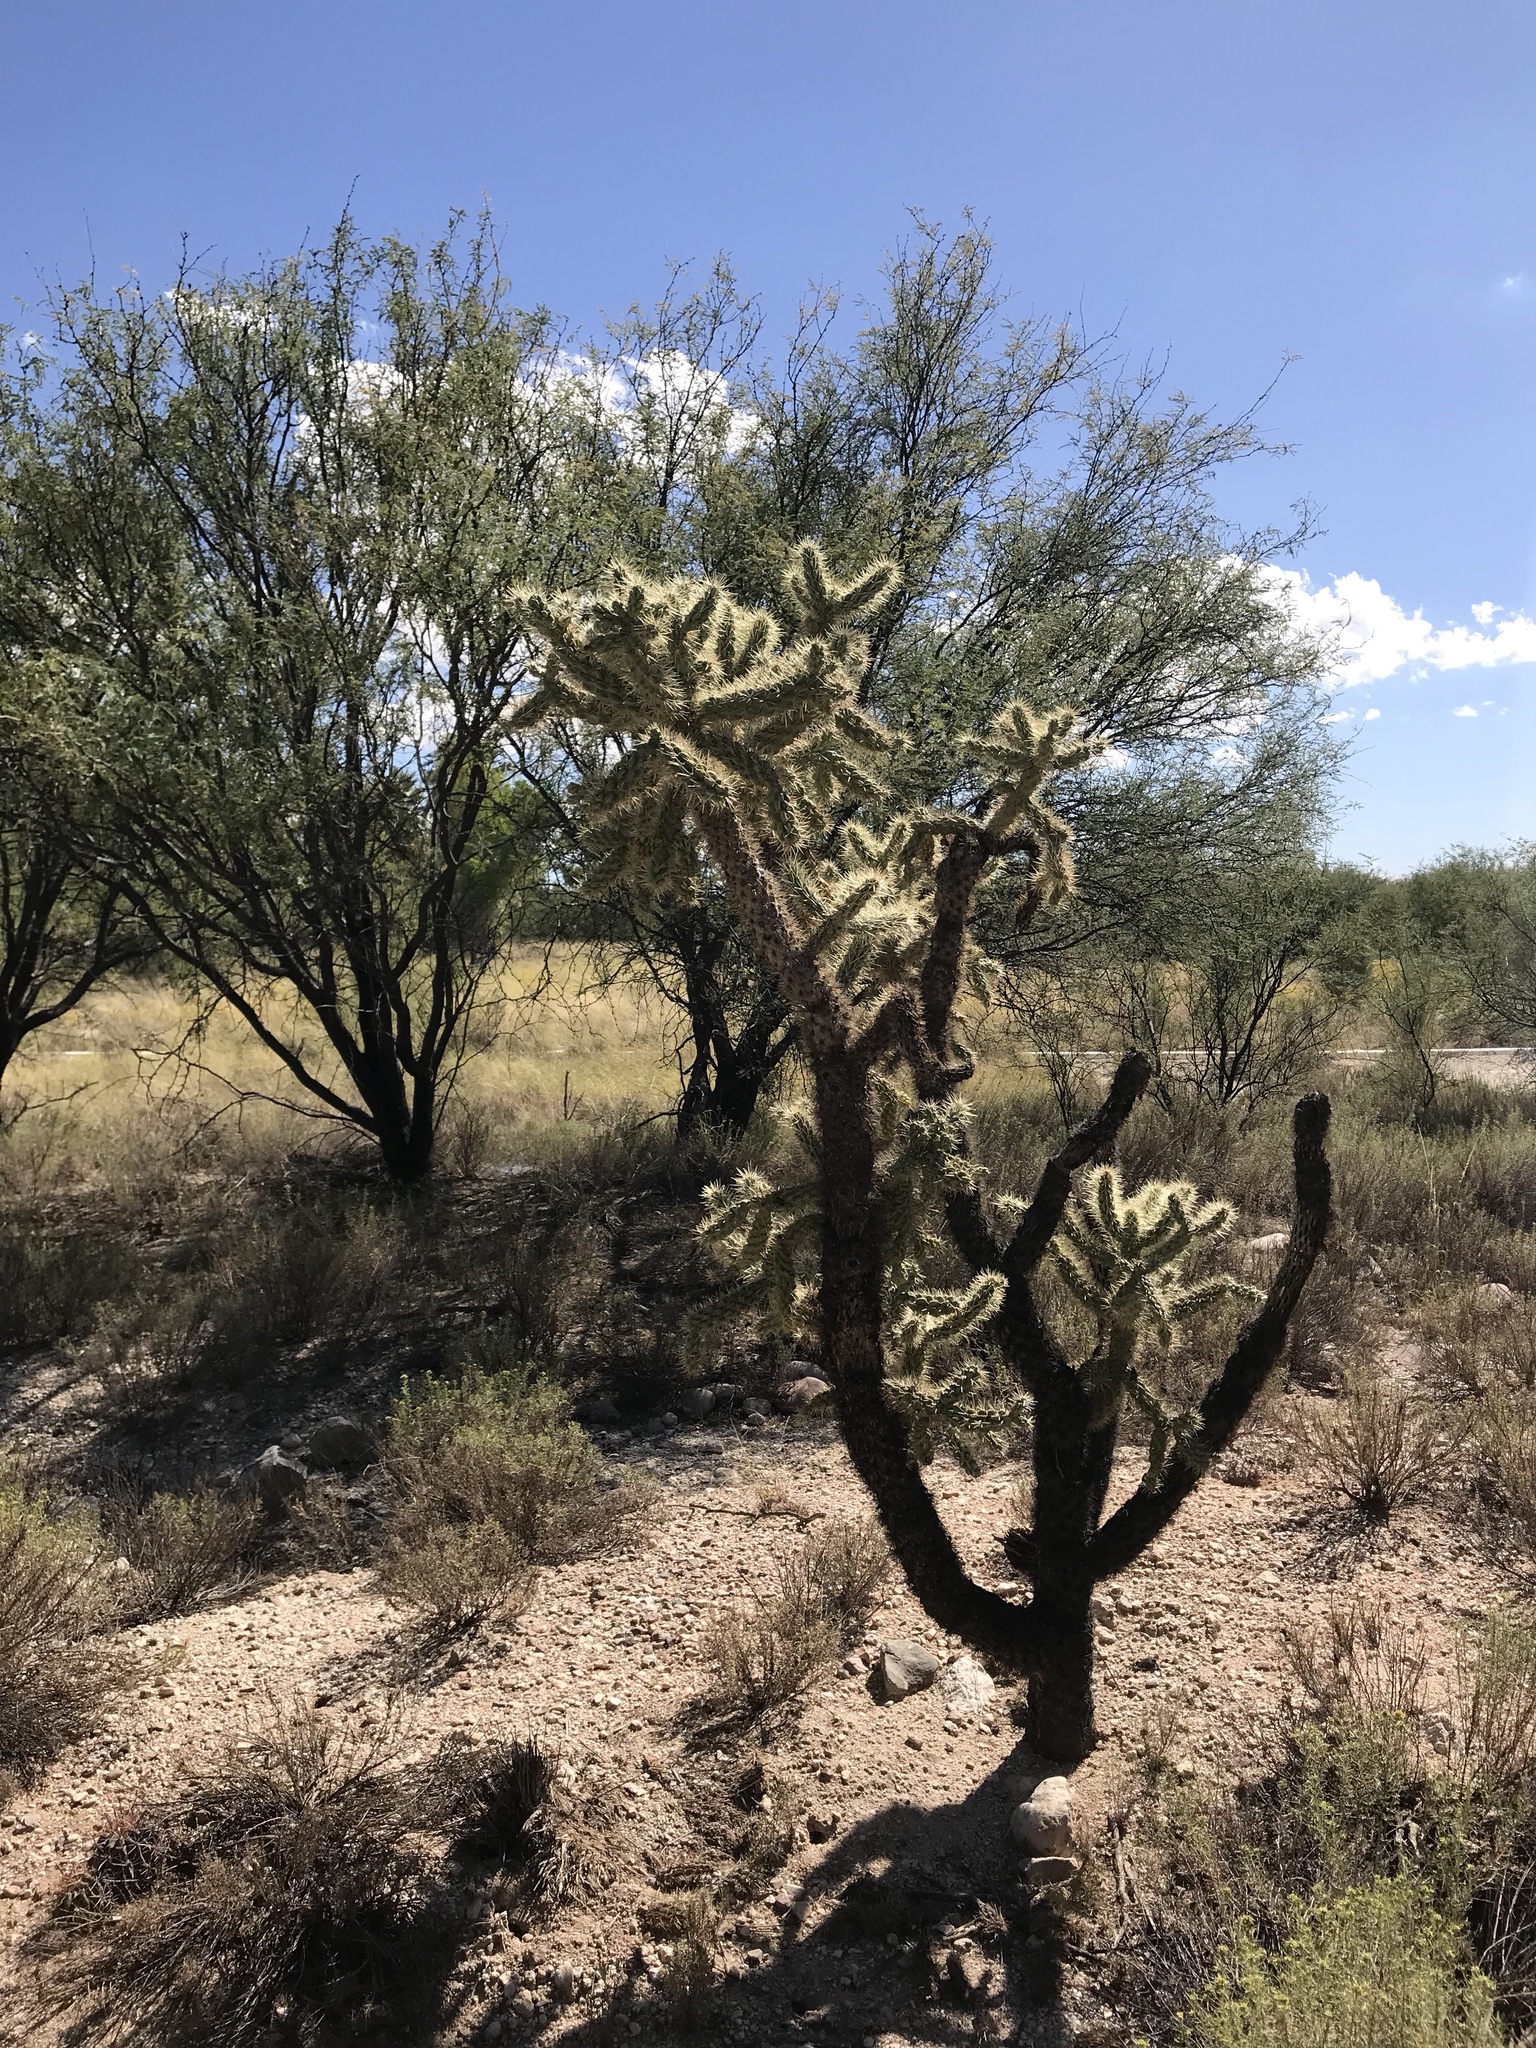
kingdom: Plantae
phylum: Tracheophyta
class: Magnoliopsida
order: Caryophyllales
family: Cactaceae
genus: Cylindropuntia
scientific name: Cylindropuntia fulgida
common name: Jumping cholla
